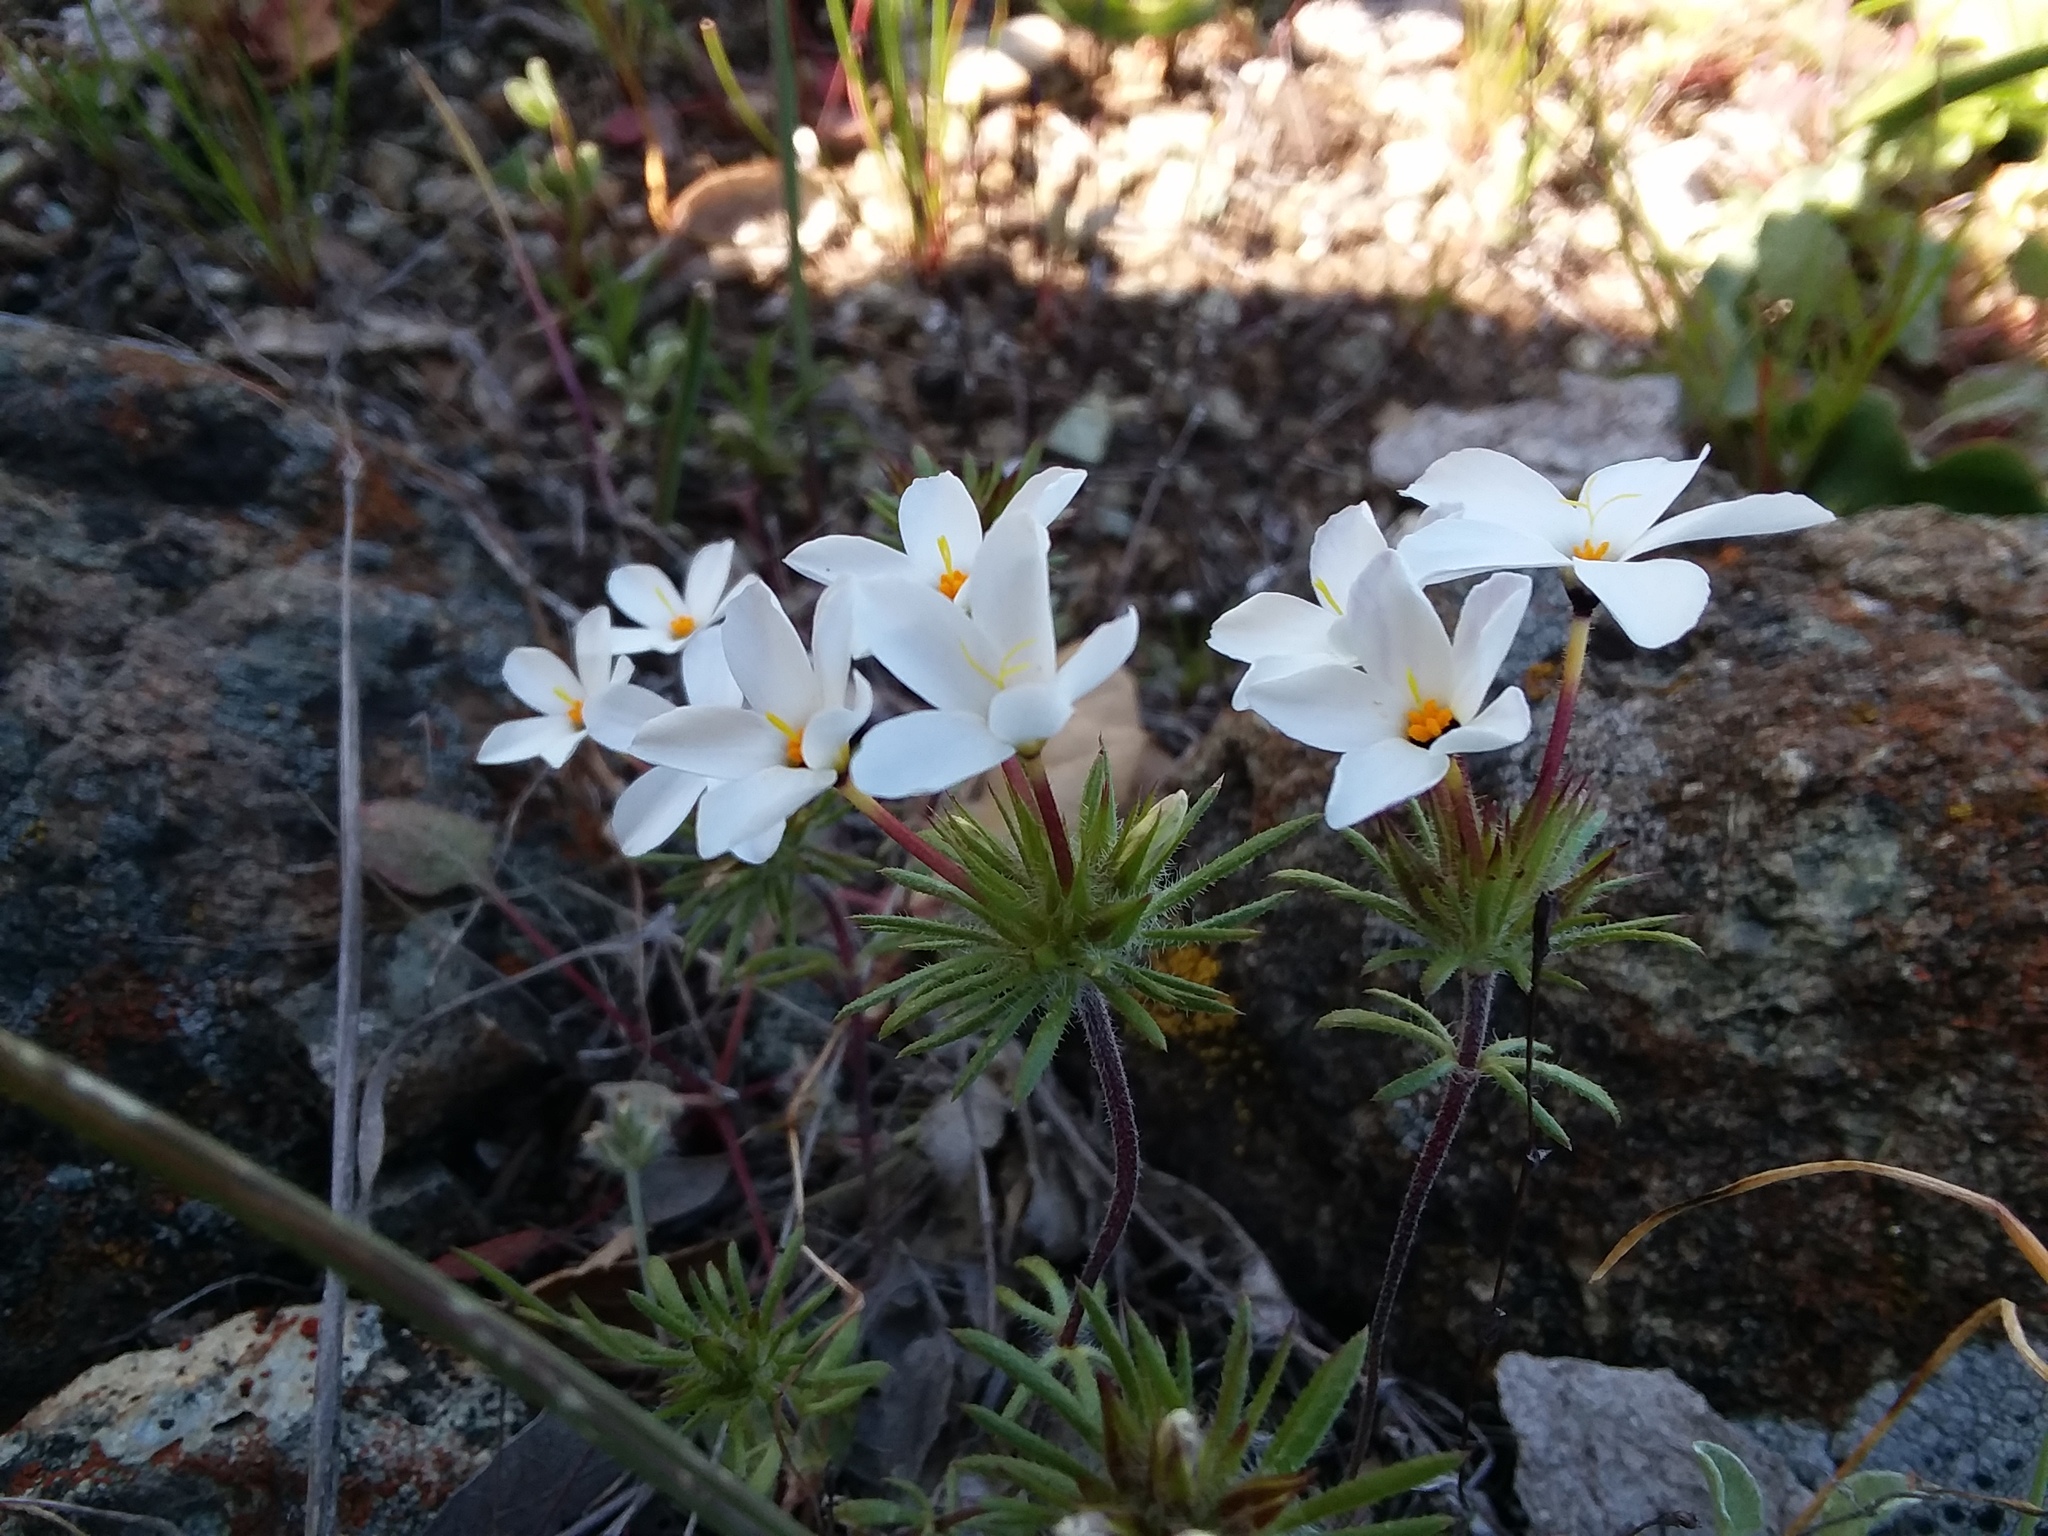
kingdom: Plantae
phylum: Tracheophyta
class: Magnoliopsida
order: Ericales
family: Polemoniaceae
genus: Leptosiphon
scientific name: Leptosiphon androsaceus
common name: False babystars
